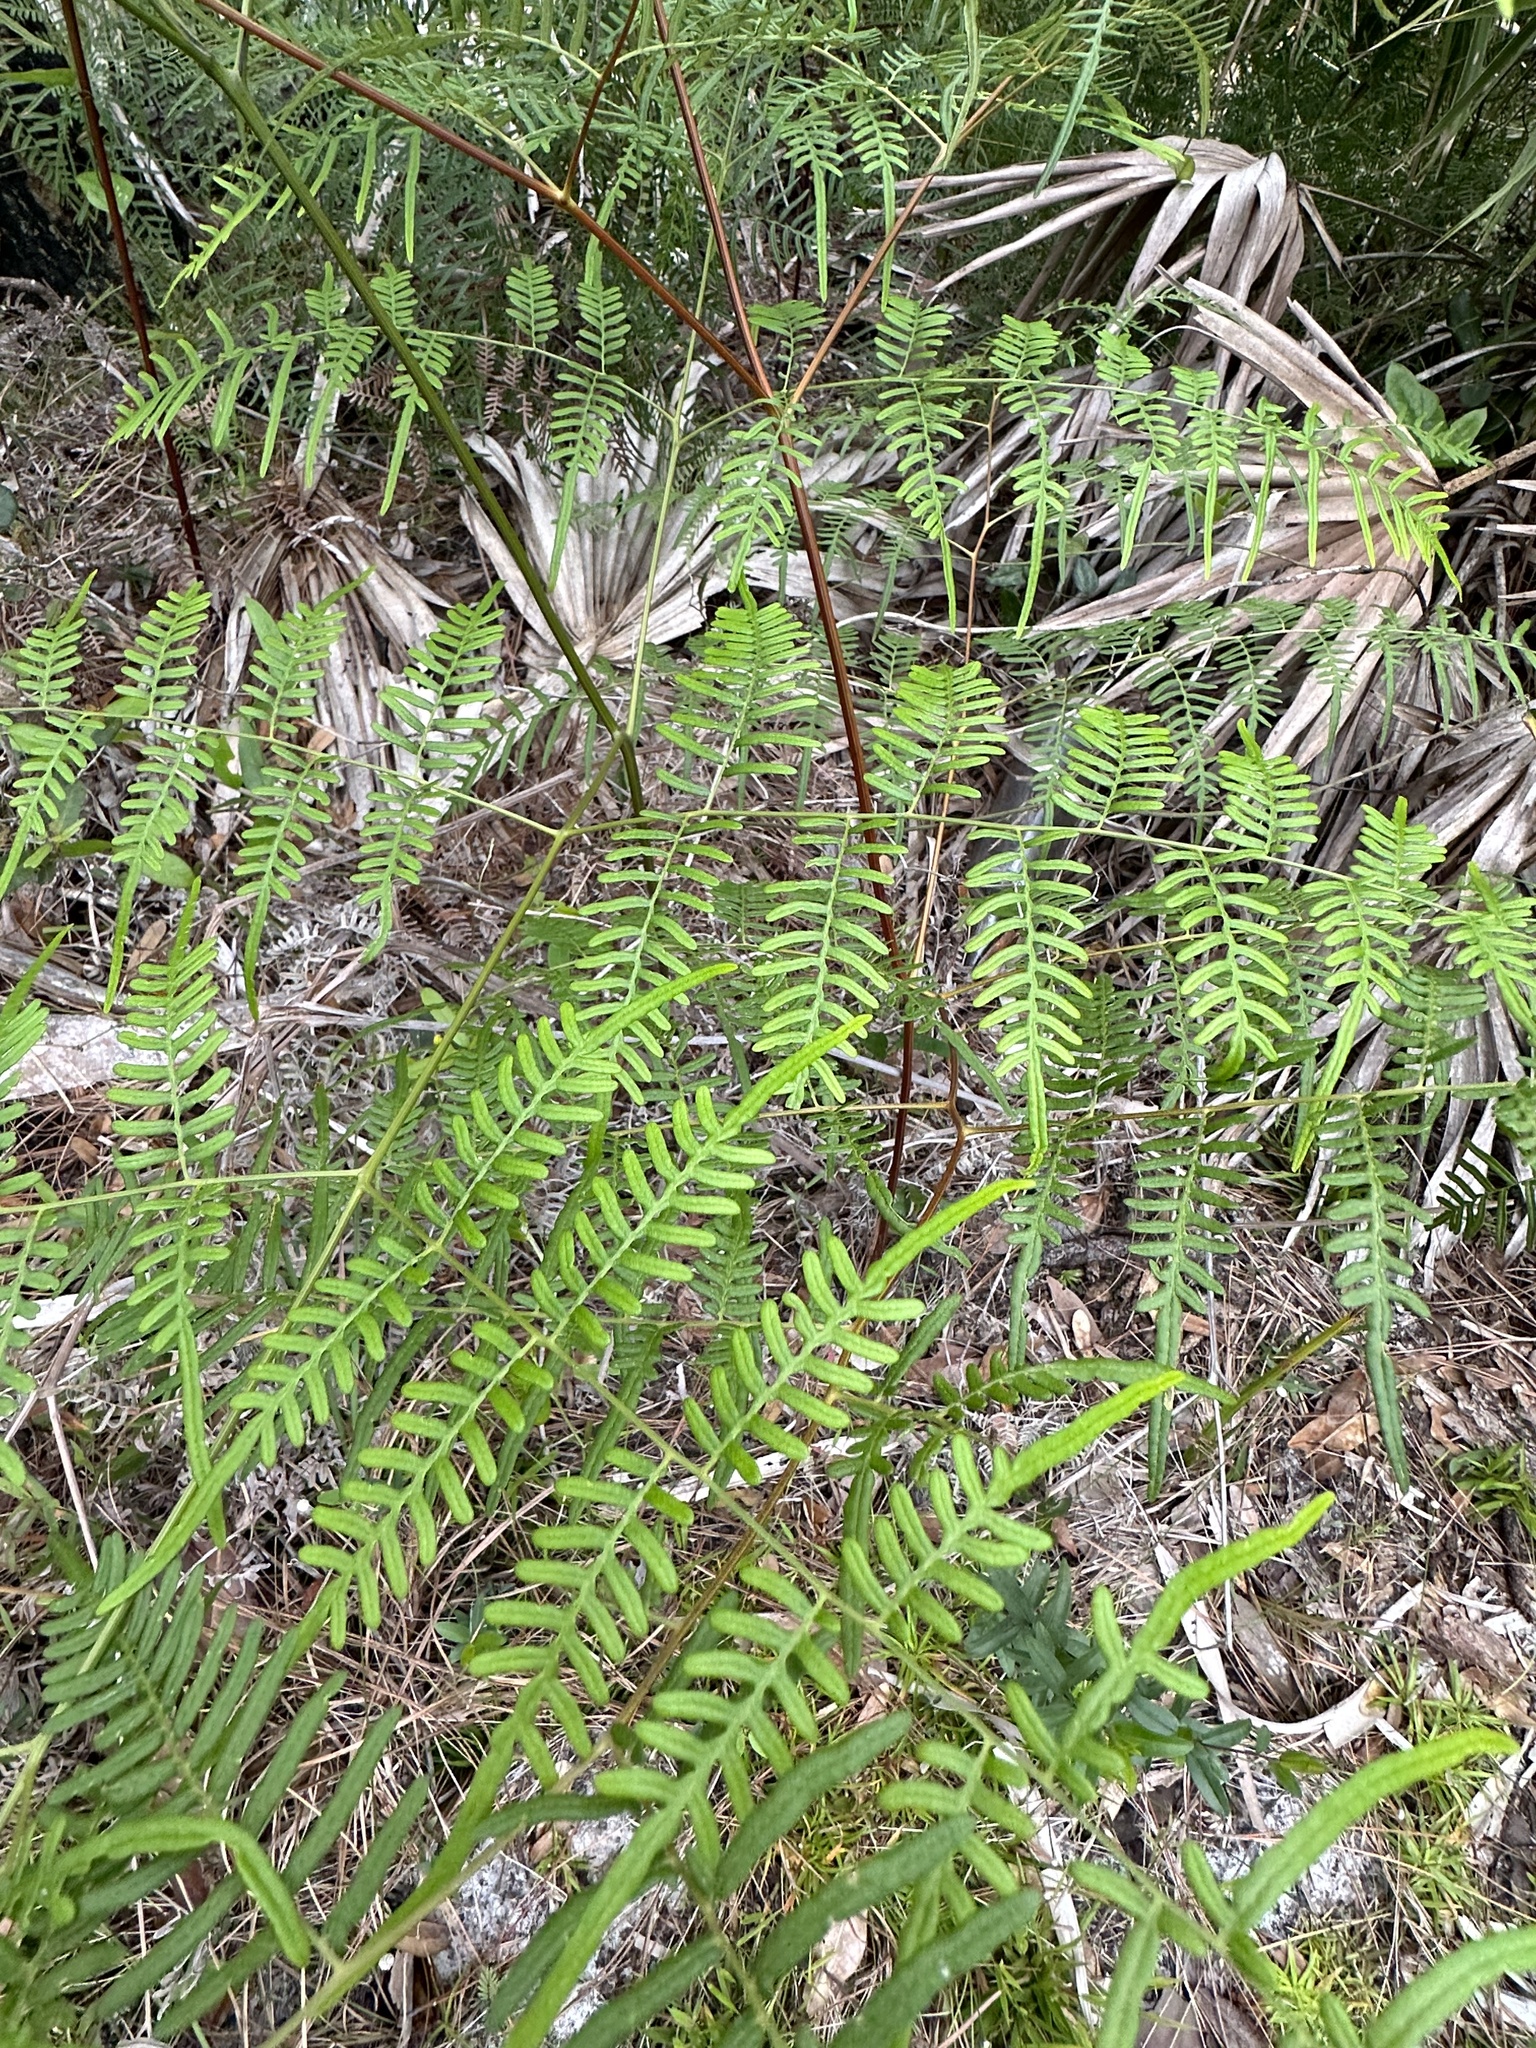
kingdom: Plantae
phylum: Tracheophyta
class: Polypodiopsida
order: Polypodiales
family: Dennstaedtiaceae
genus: Pteridium
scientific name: Pteridium caudatum
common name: Southern bracken fern
